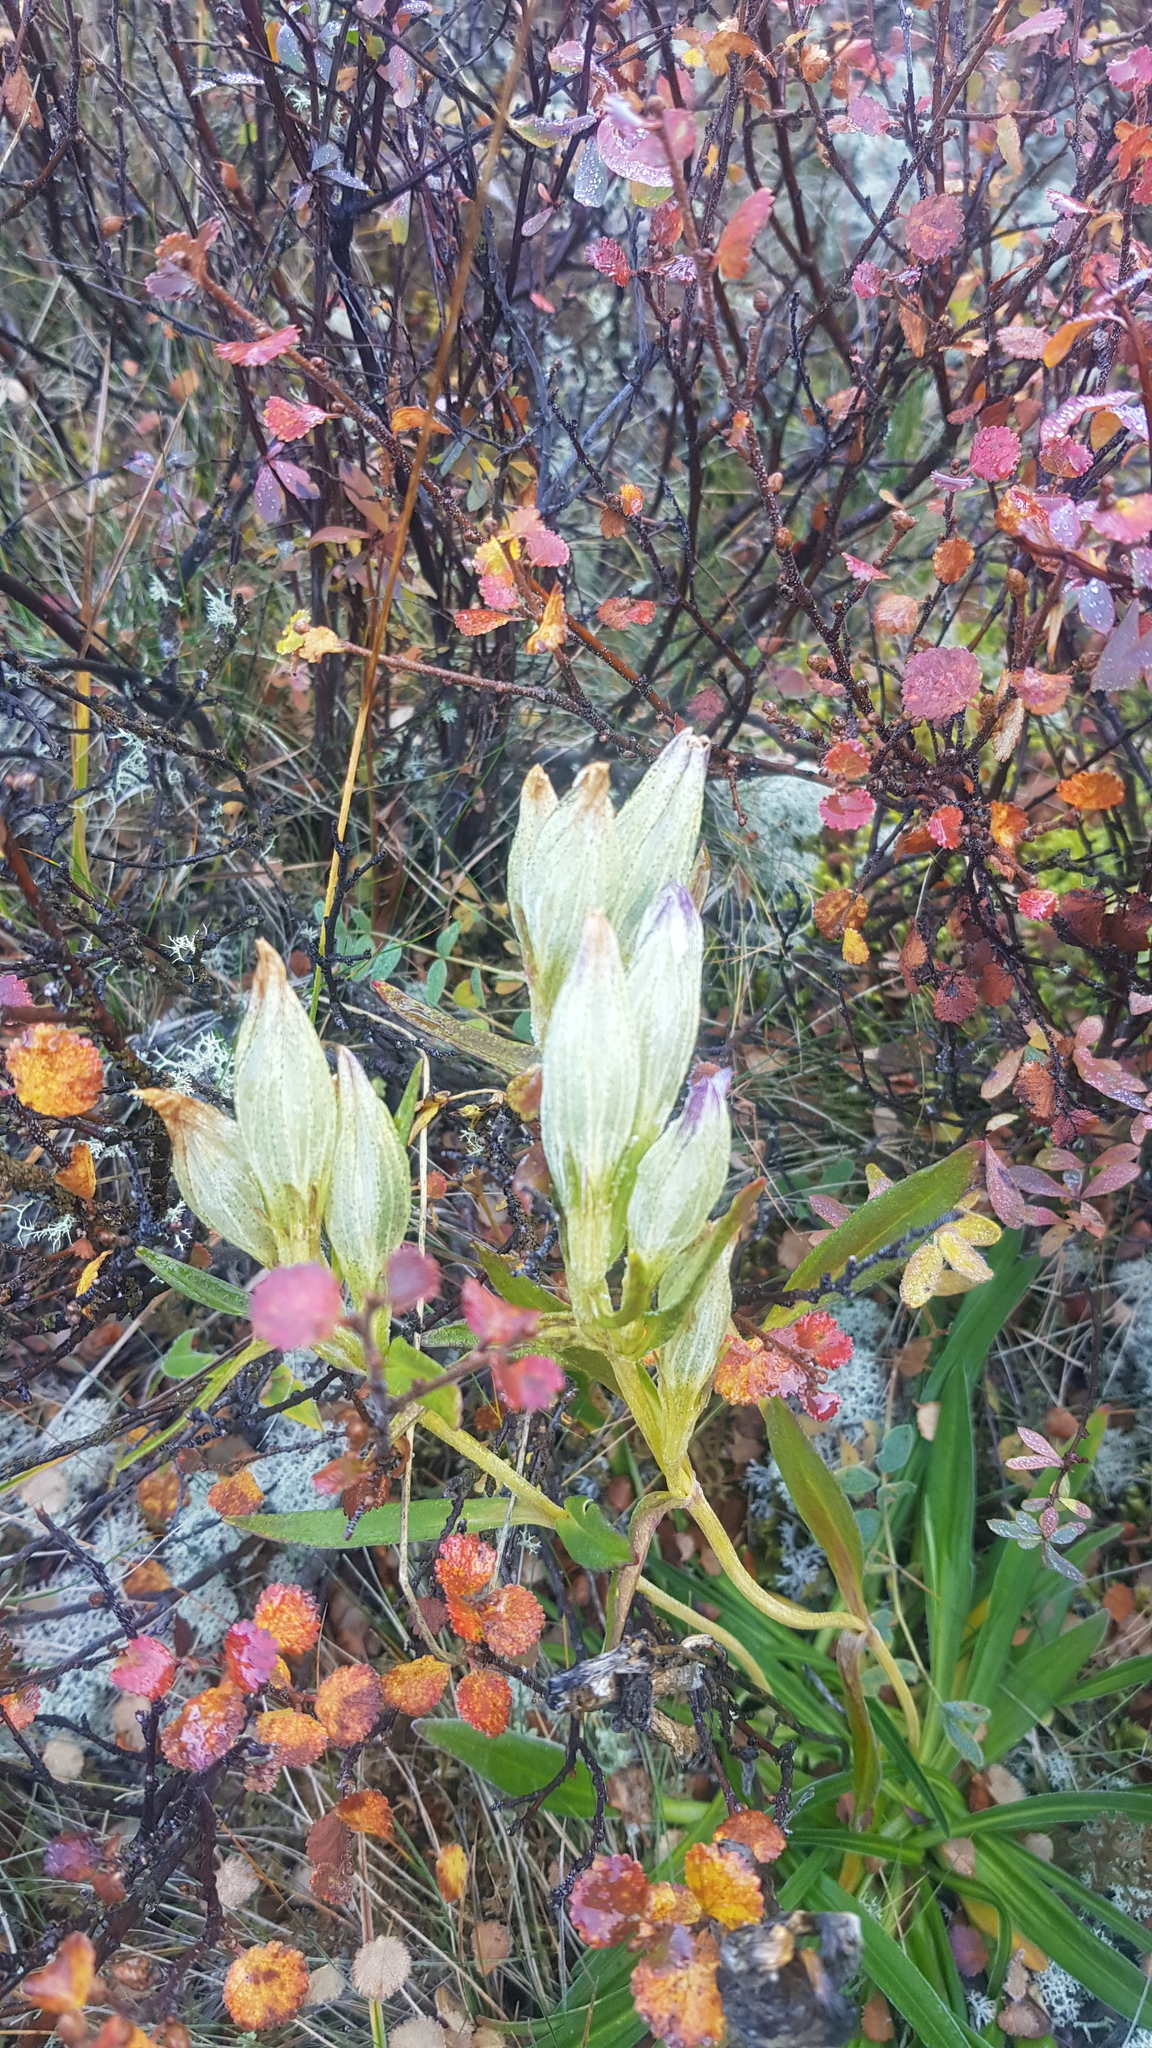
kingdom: Plantae
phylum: Tracheophyta
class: Magnoliopsida
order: Gentianales
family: Gentianaceae
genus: Gentiana
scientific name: Gentiana algida
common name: Arctic gentian
